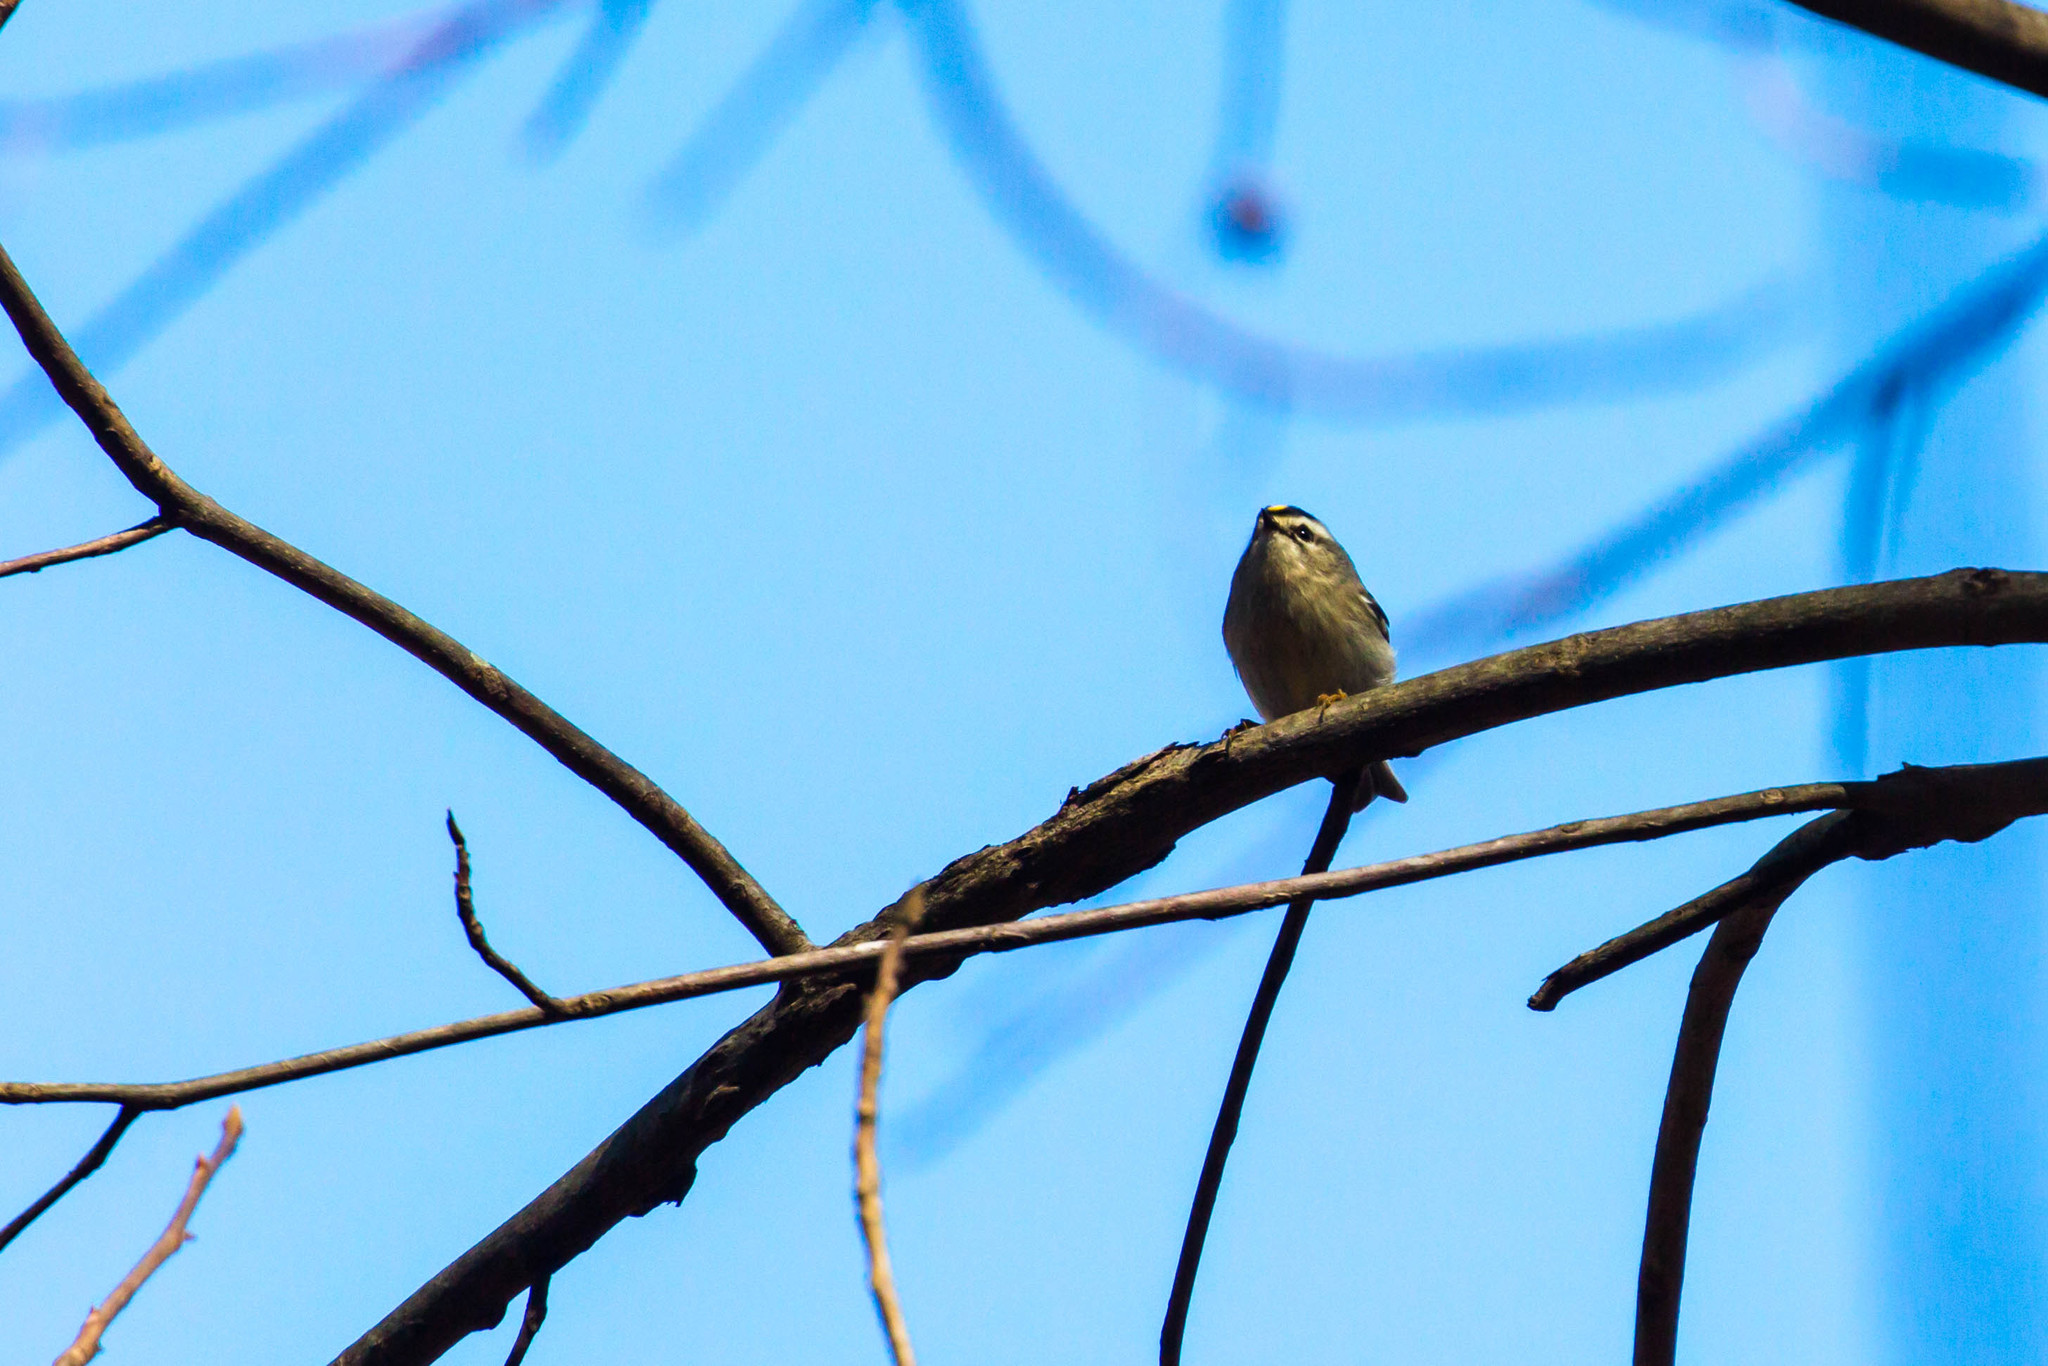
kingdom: Animalia
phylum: Chordata
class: Aves
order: Passeriformes
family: Regulidae
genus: Regulus
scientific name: Regulus satrapa
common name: Golden-crowned kinglet
